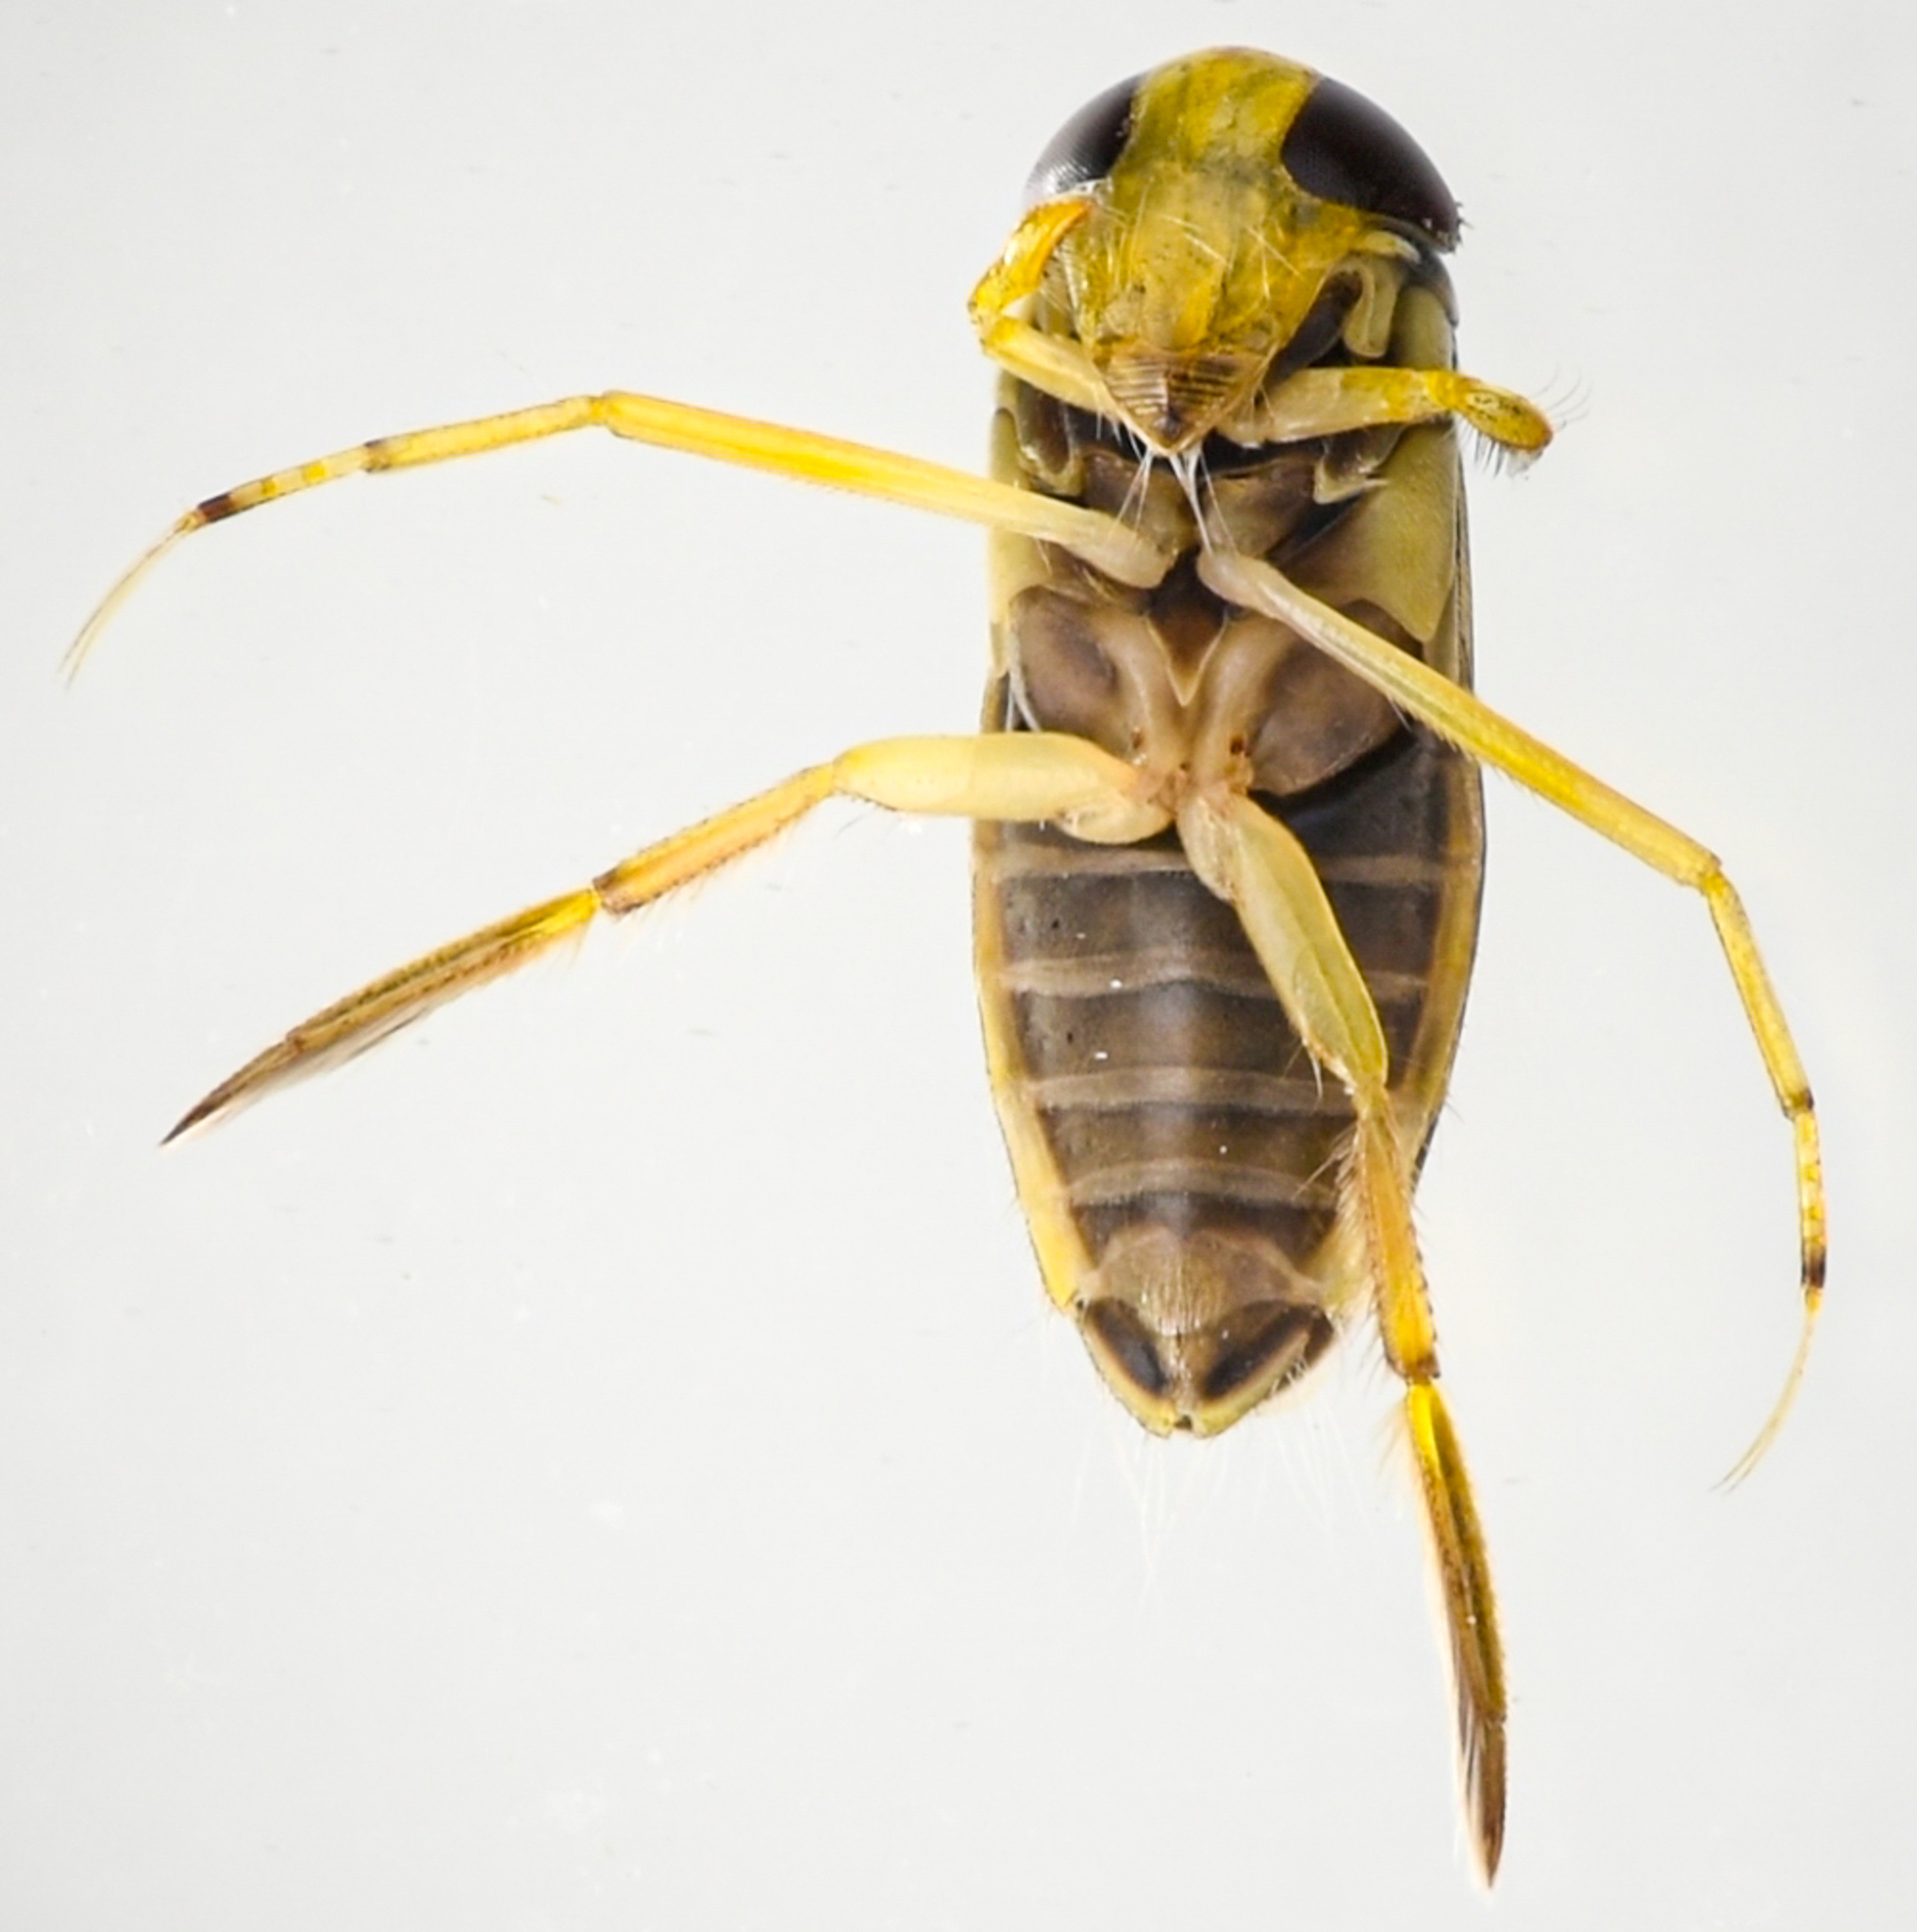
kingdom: Animalia
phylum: Arthropoda
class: Insecta
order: Hemiptera
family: Corixidae
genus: Sigara
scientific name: Sigara mckinstryi
